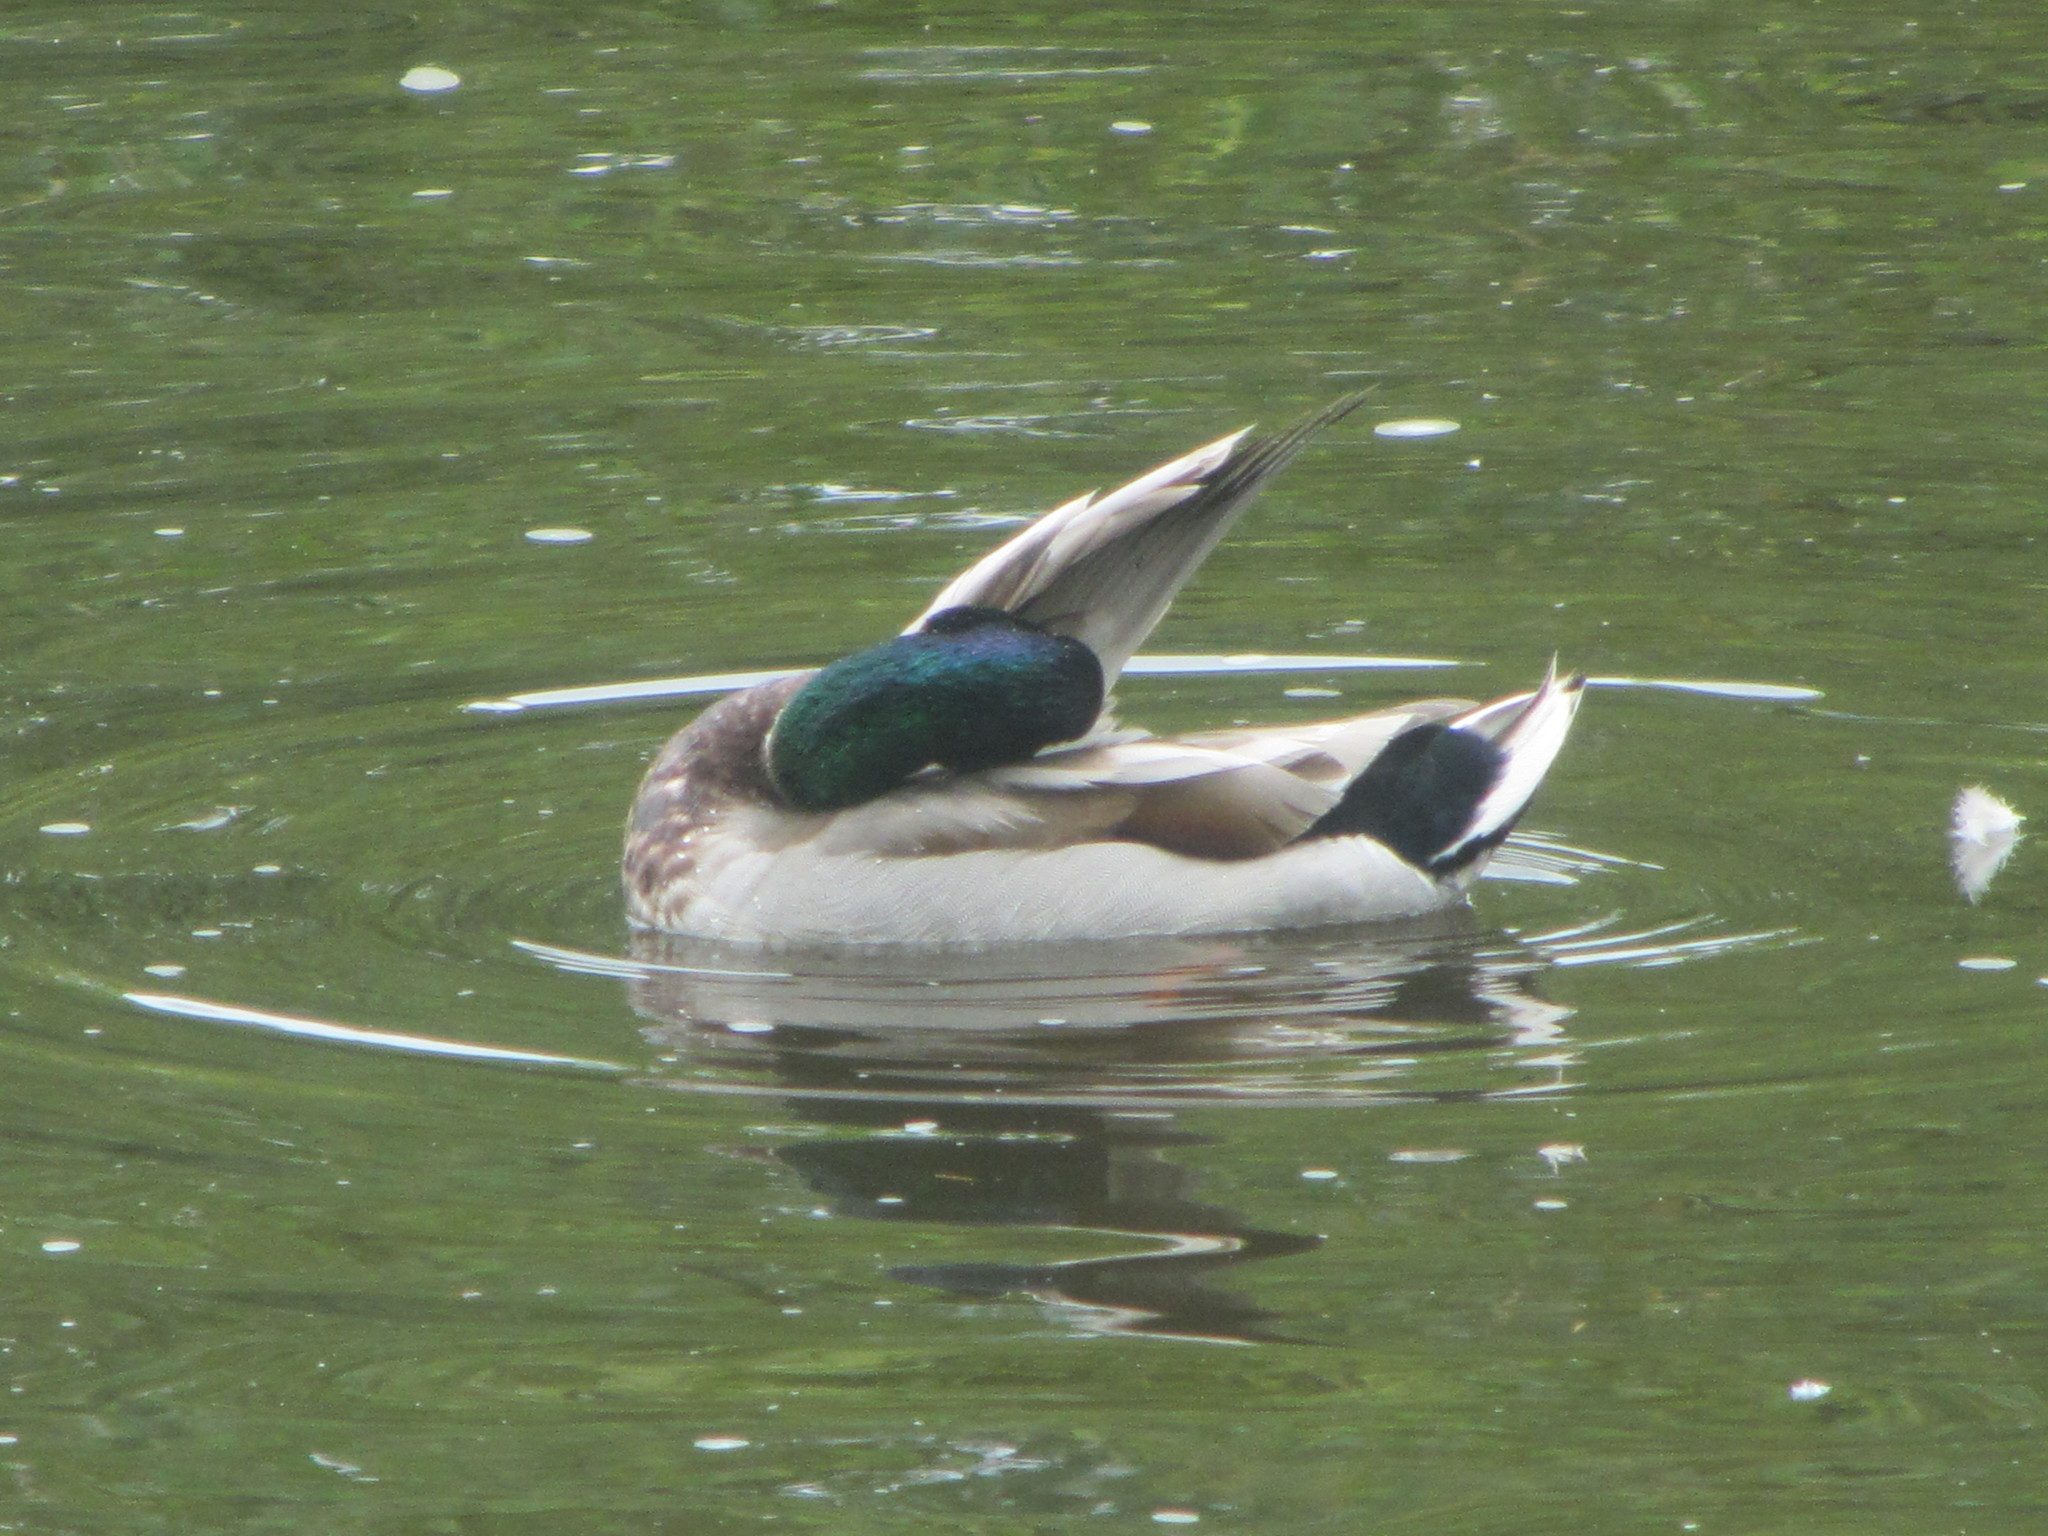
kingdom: Animalia
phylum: Chordata
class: Aves
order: Anseriformes
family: Anatidae
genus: Anas
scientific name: Anas platyrhynchos
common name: Mallard
